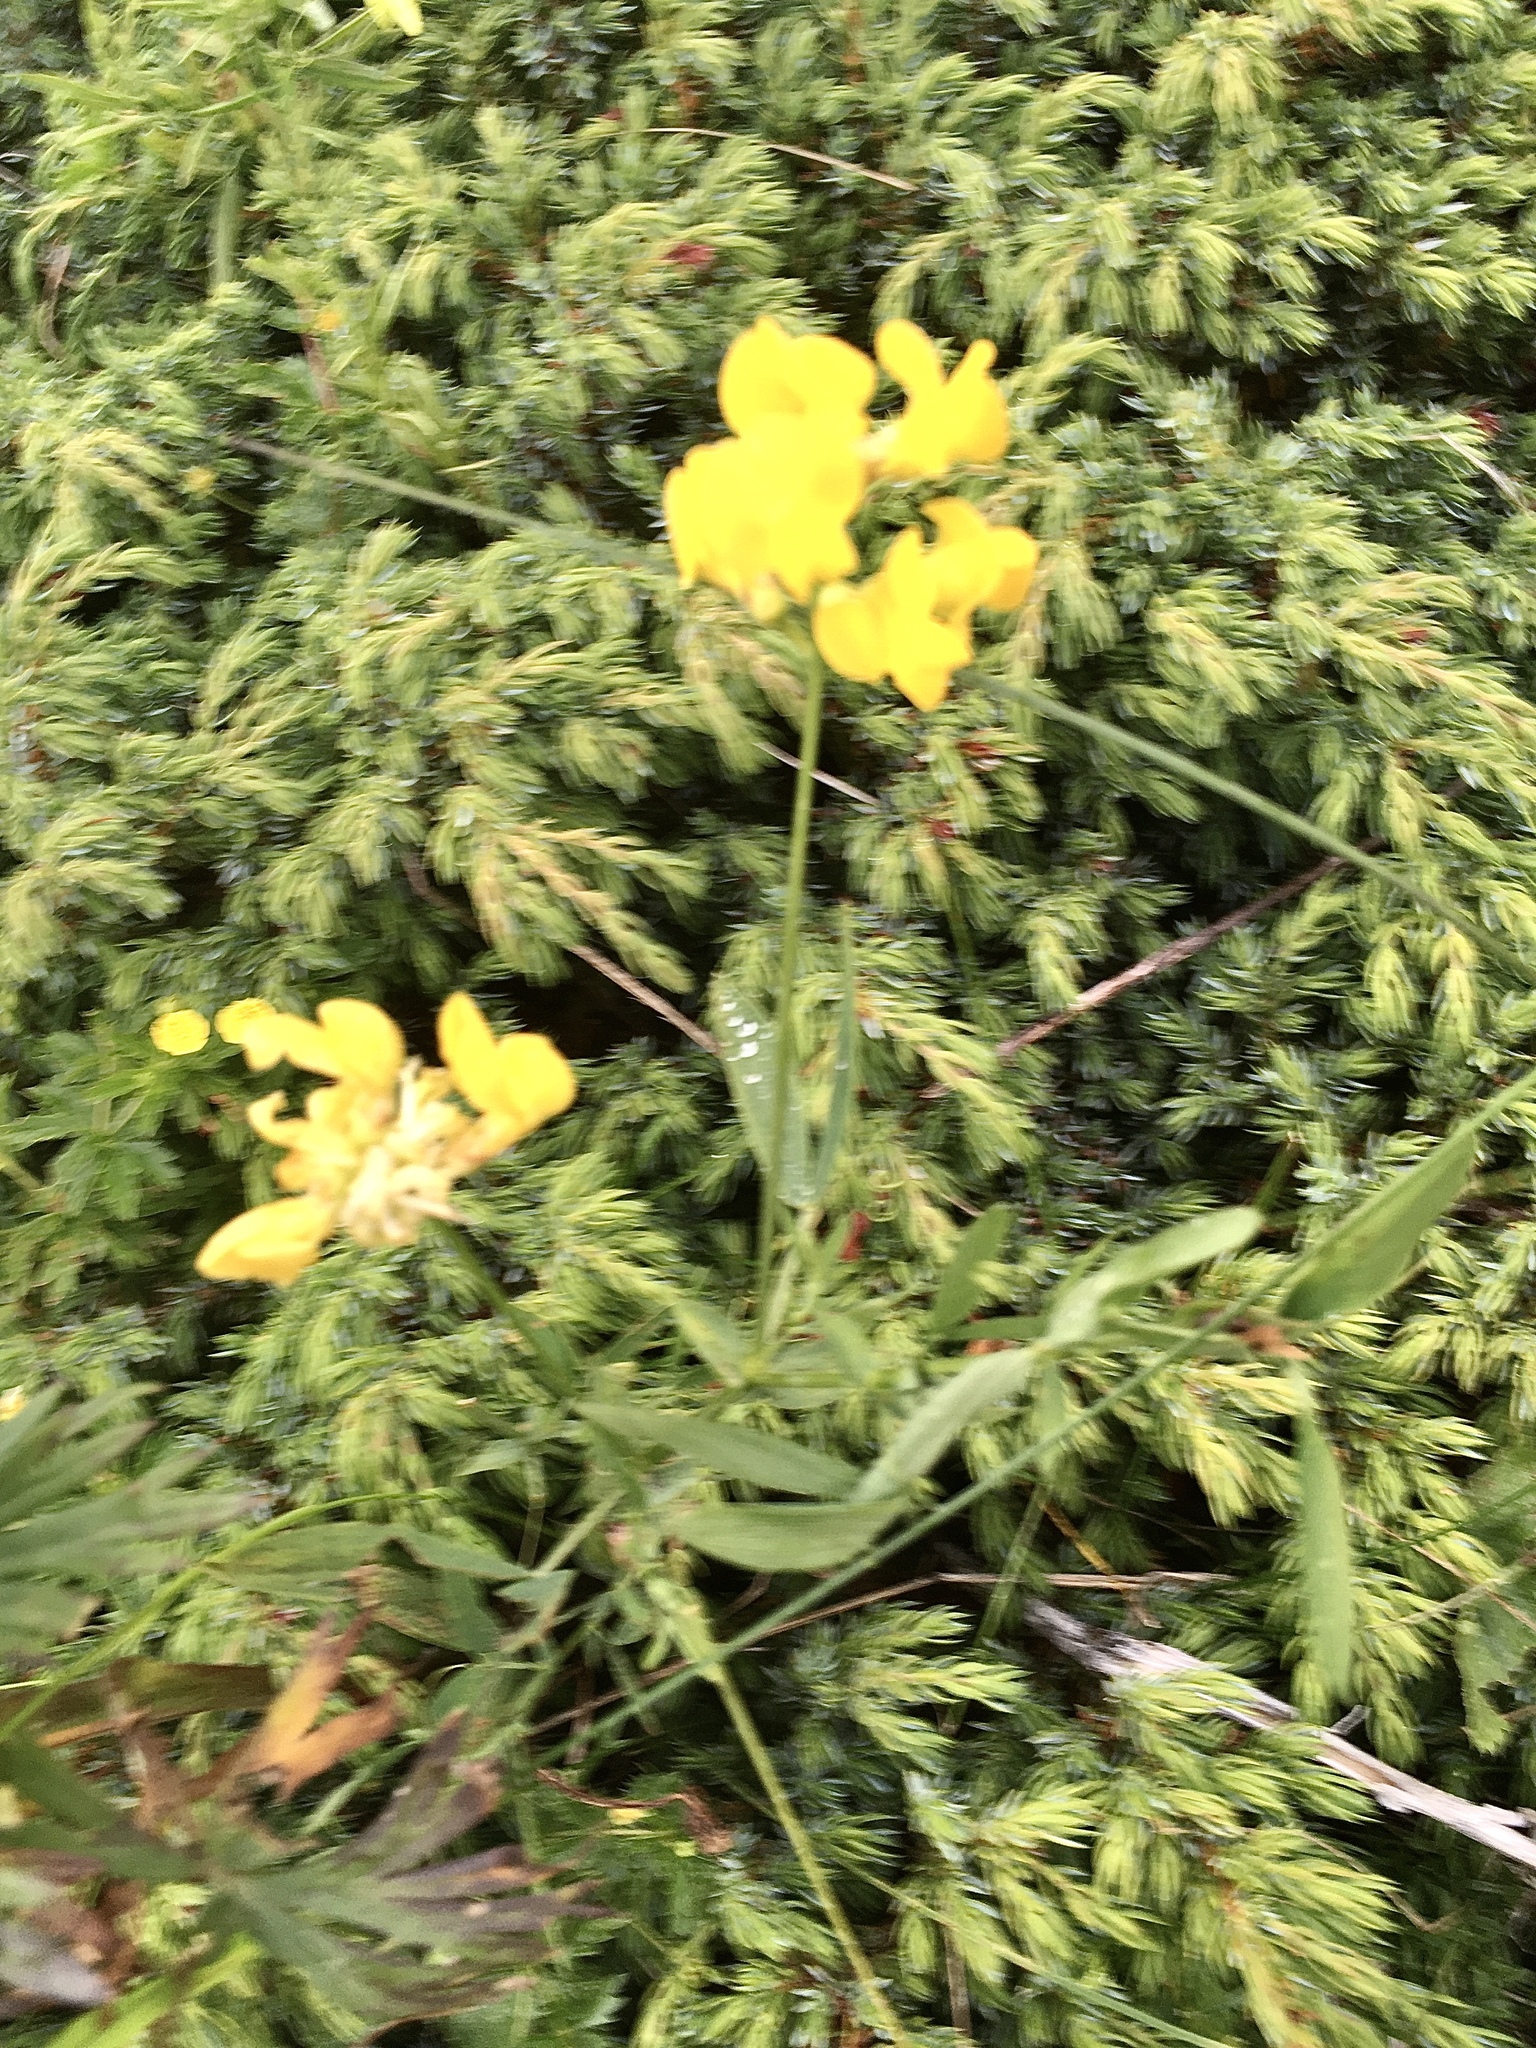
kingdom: Plantae
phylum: Tracheophyta
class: Magnoliopsida
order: Fabales
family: Fabaceae
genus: Lathyrus
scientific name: Lathyrus pratensis
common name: Meadow vetchling
